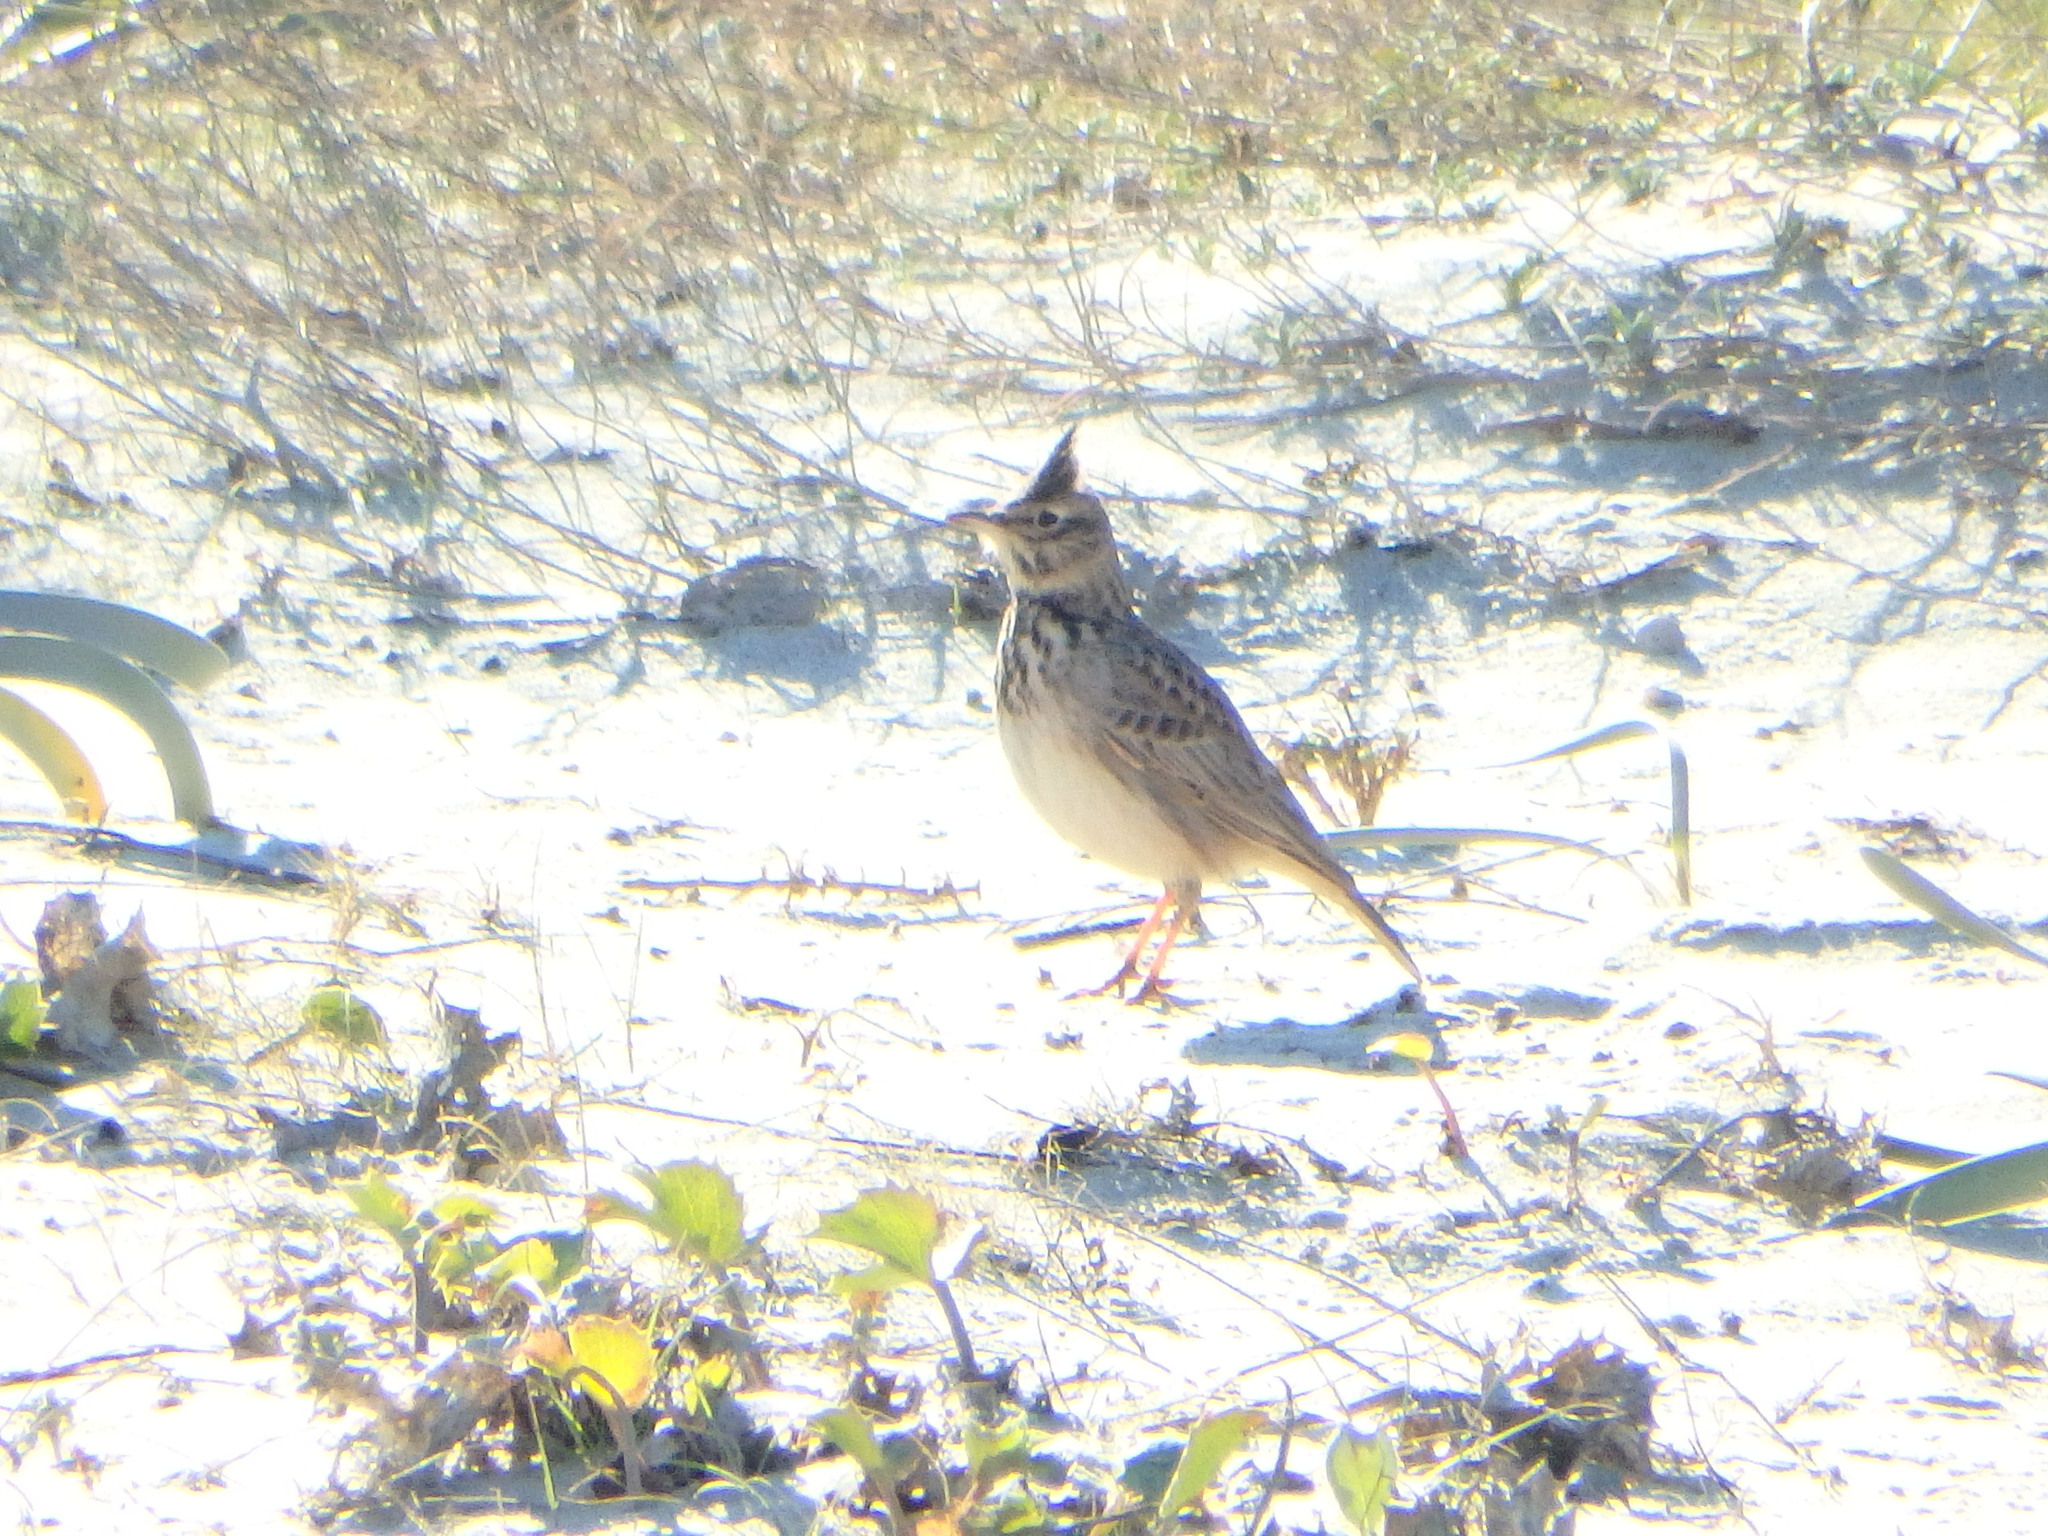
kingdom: Animalia
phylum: Chordata
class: Aves
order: Passeriformes
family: Alaudidae
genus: Galerida
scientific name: Galerida cristata
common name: Crested lark
